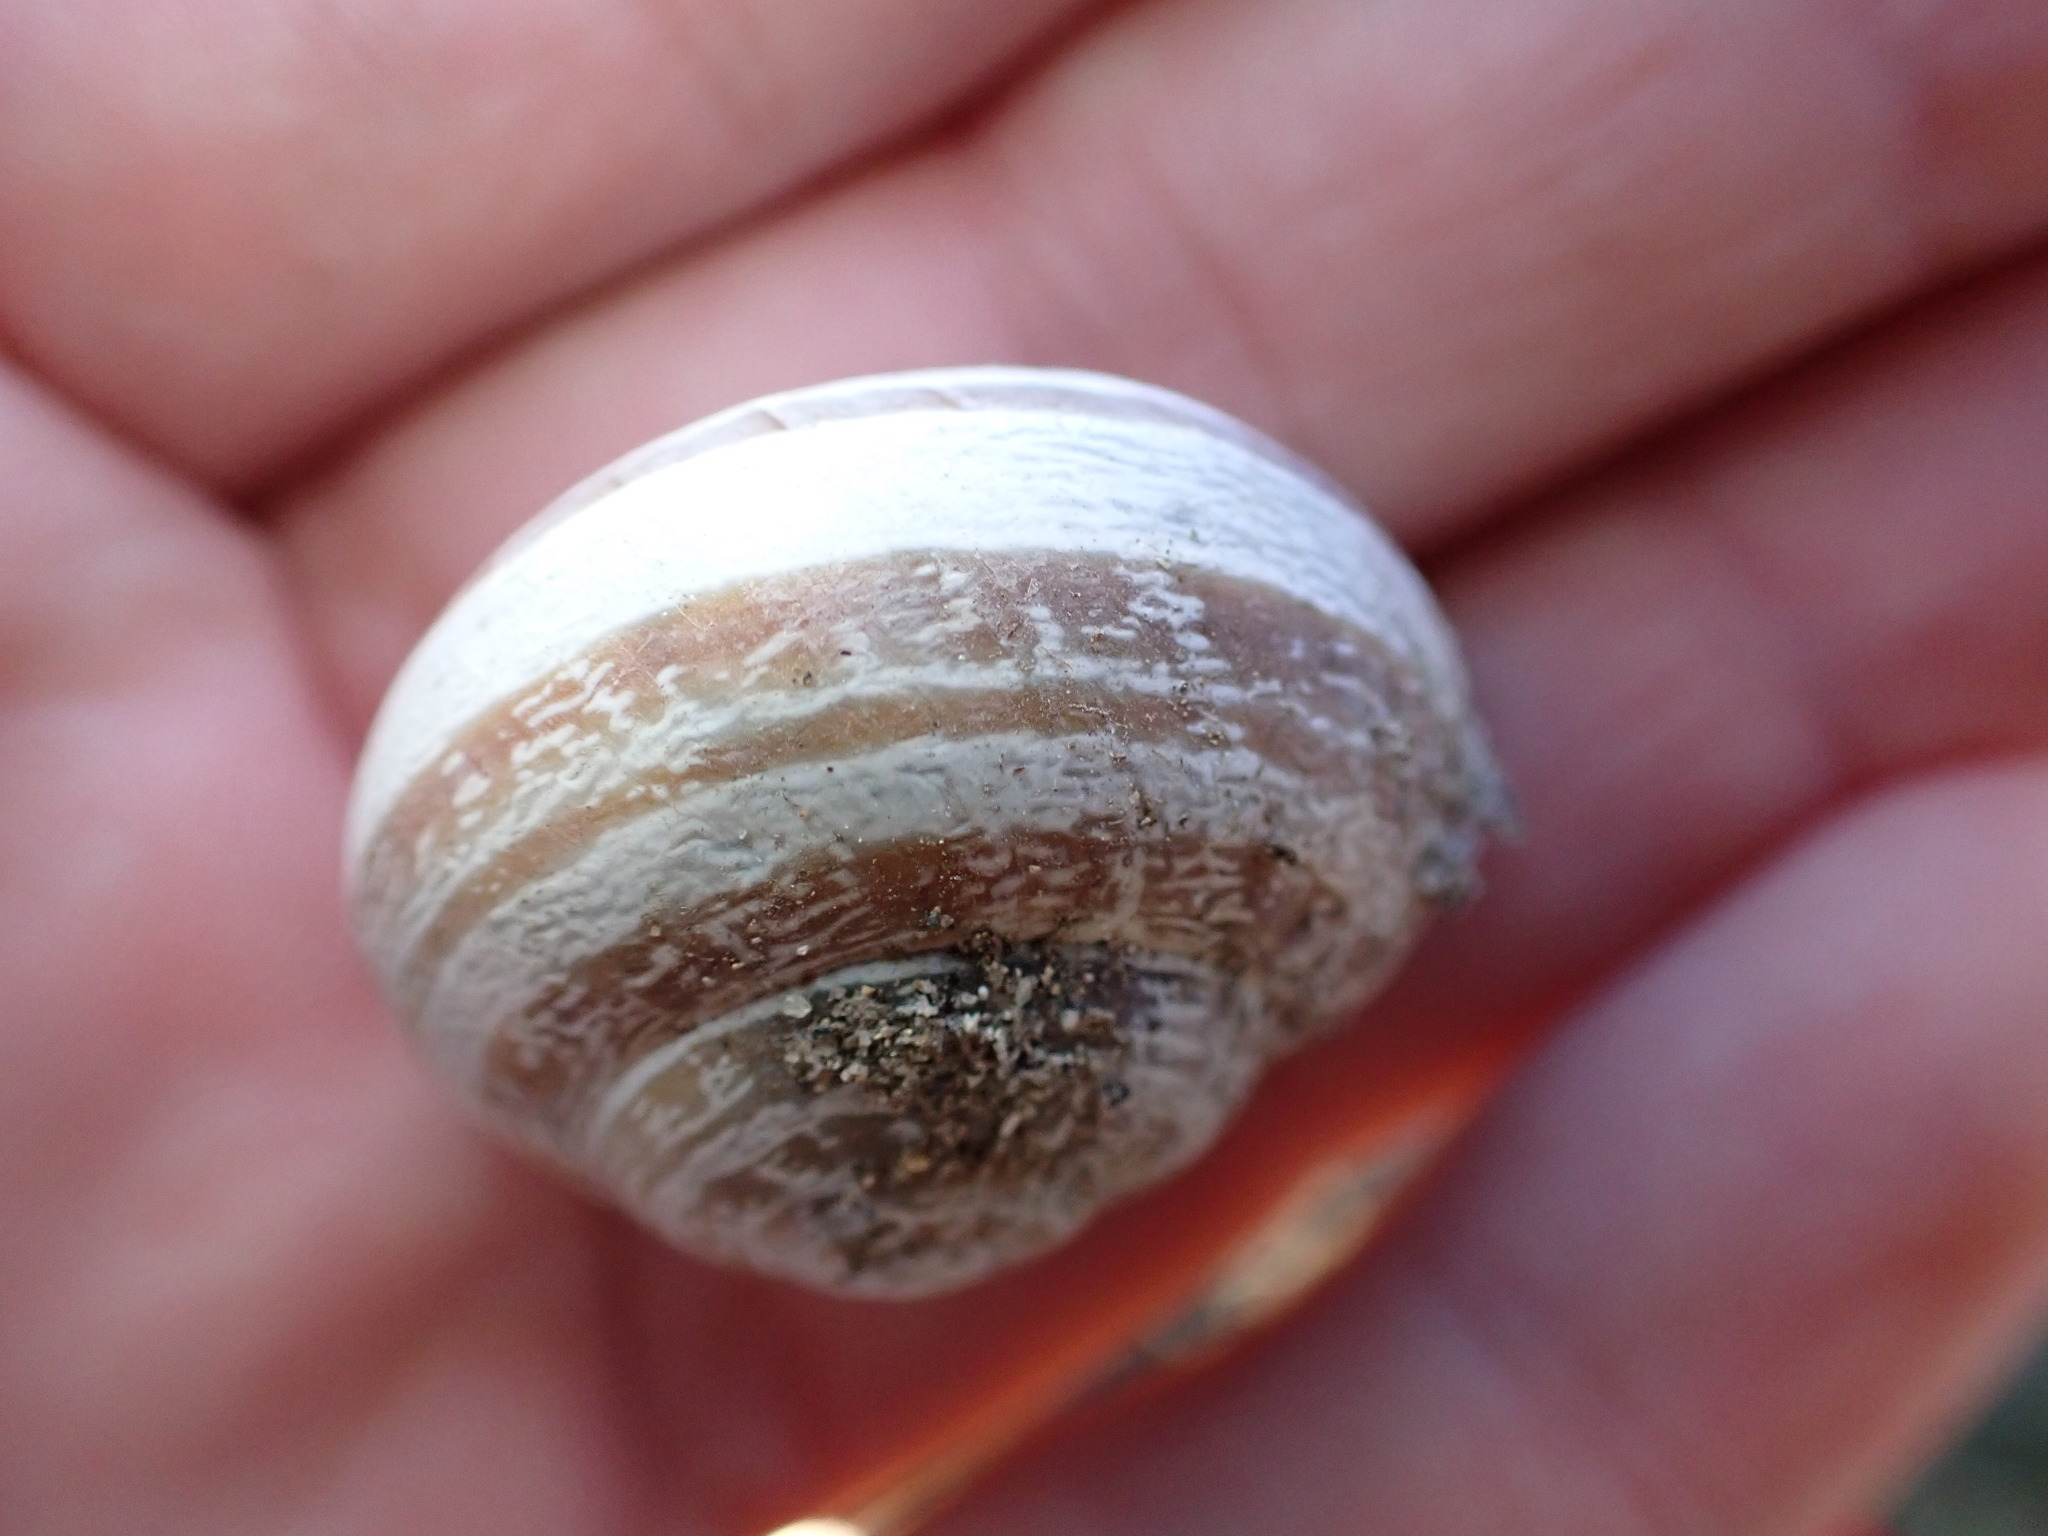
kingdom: Animalia
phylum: Mollusca
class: Gastropoda
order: Stylommatophora
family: Helicidae
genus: Eobania
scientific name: Eobania vermiculata
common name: Chocolateband snail
